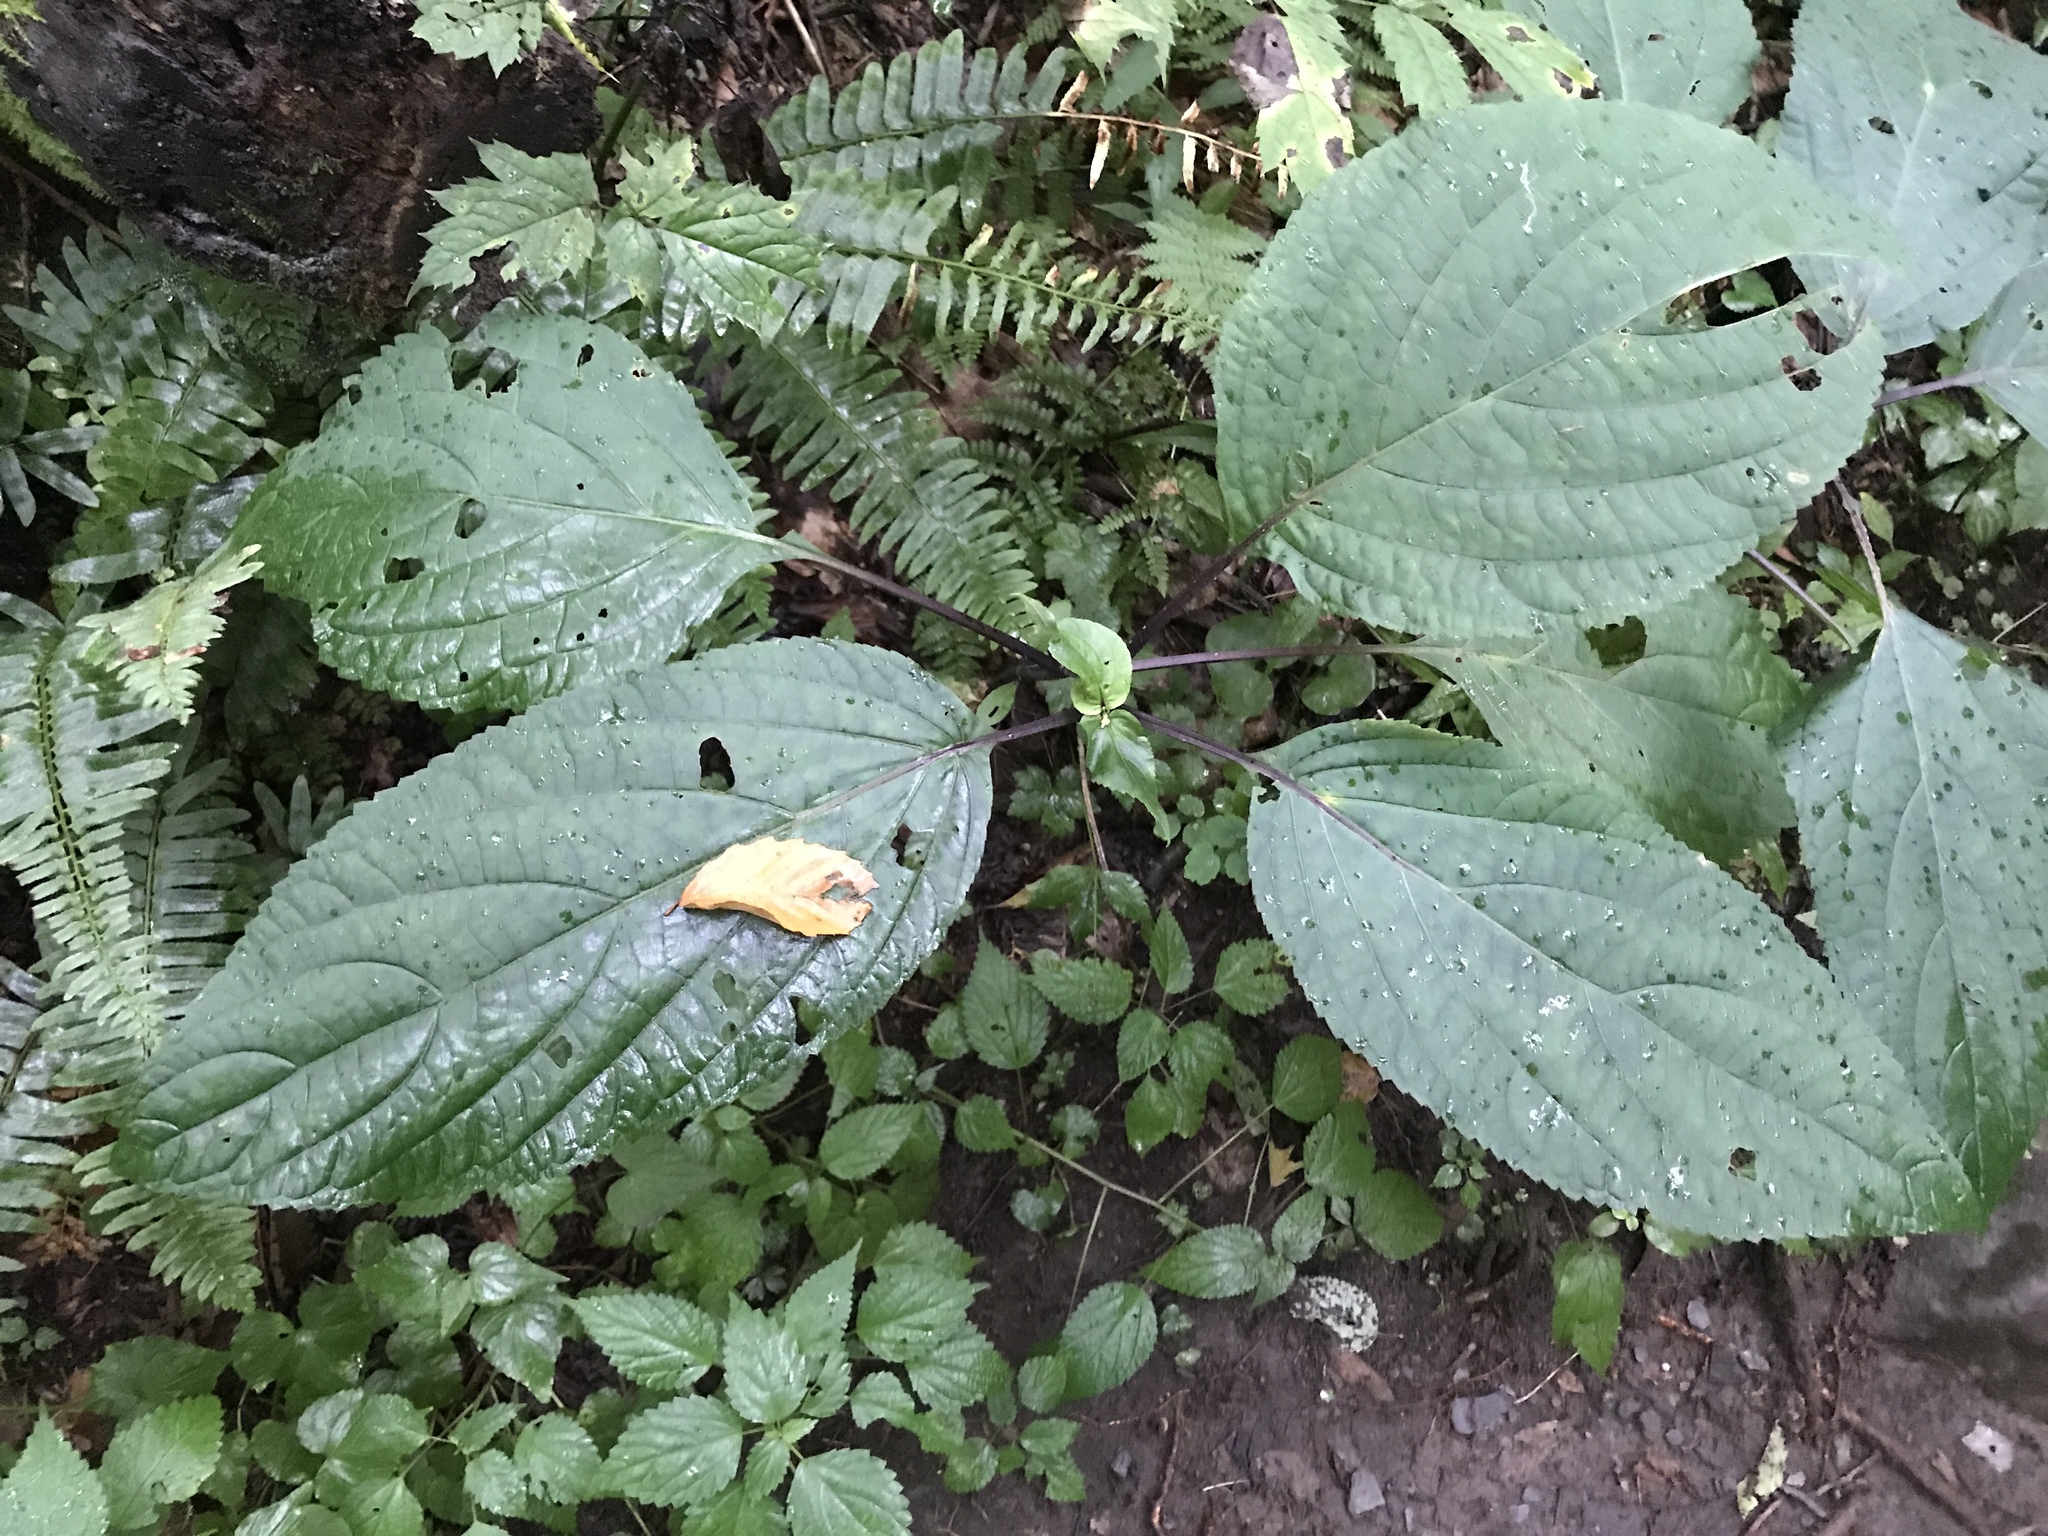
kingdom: Plantae
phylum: Tracheophyta
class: Magnoliopsida
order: Lamiales
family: Lamiaceae
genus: Collinsonia
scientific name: Collinsonia canadensis
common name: Northern horsebalm
